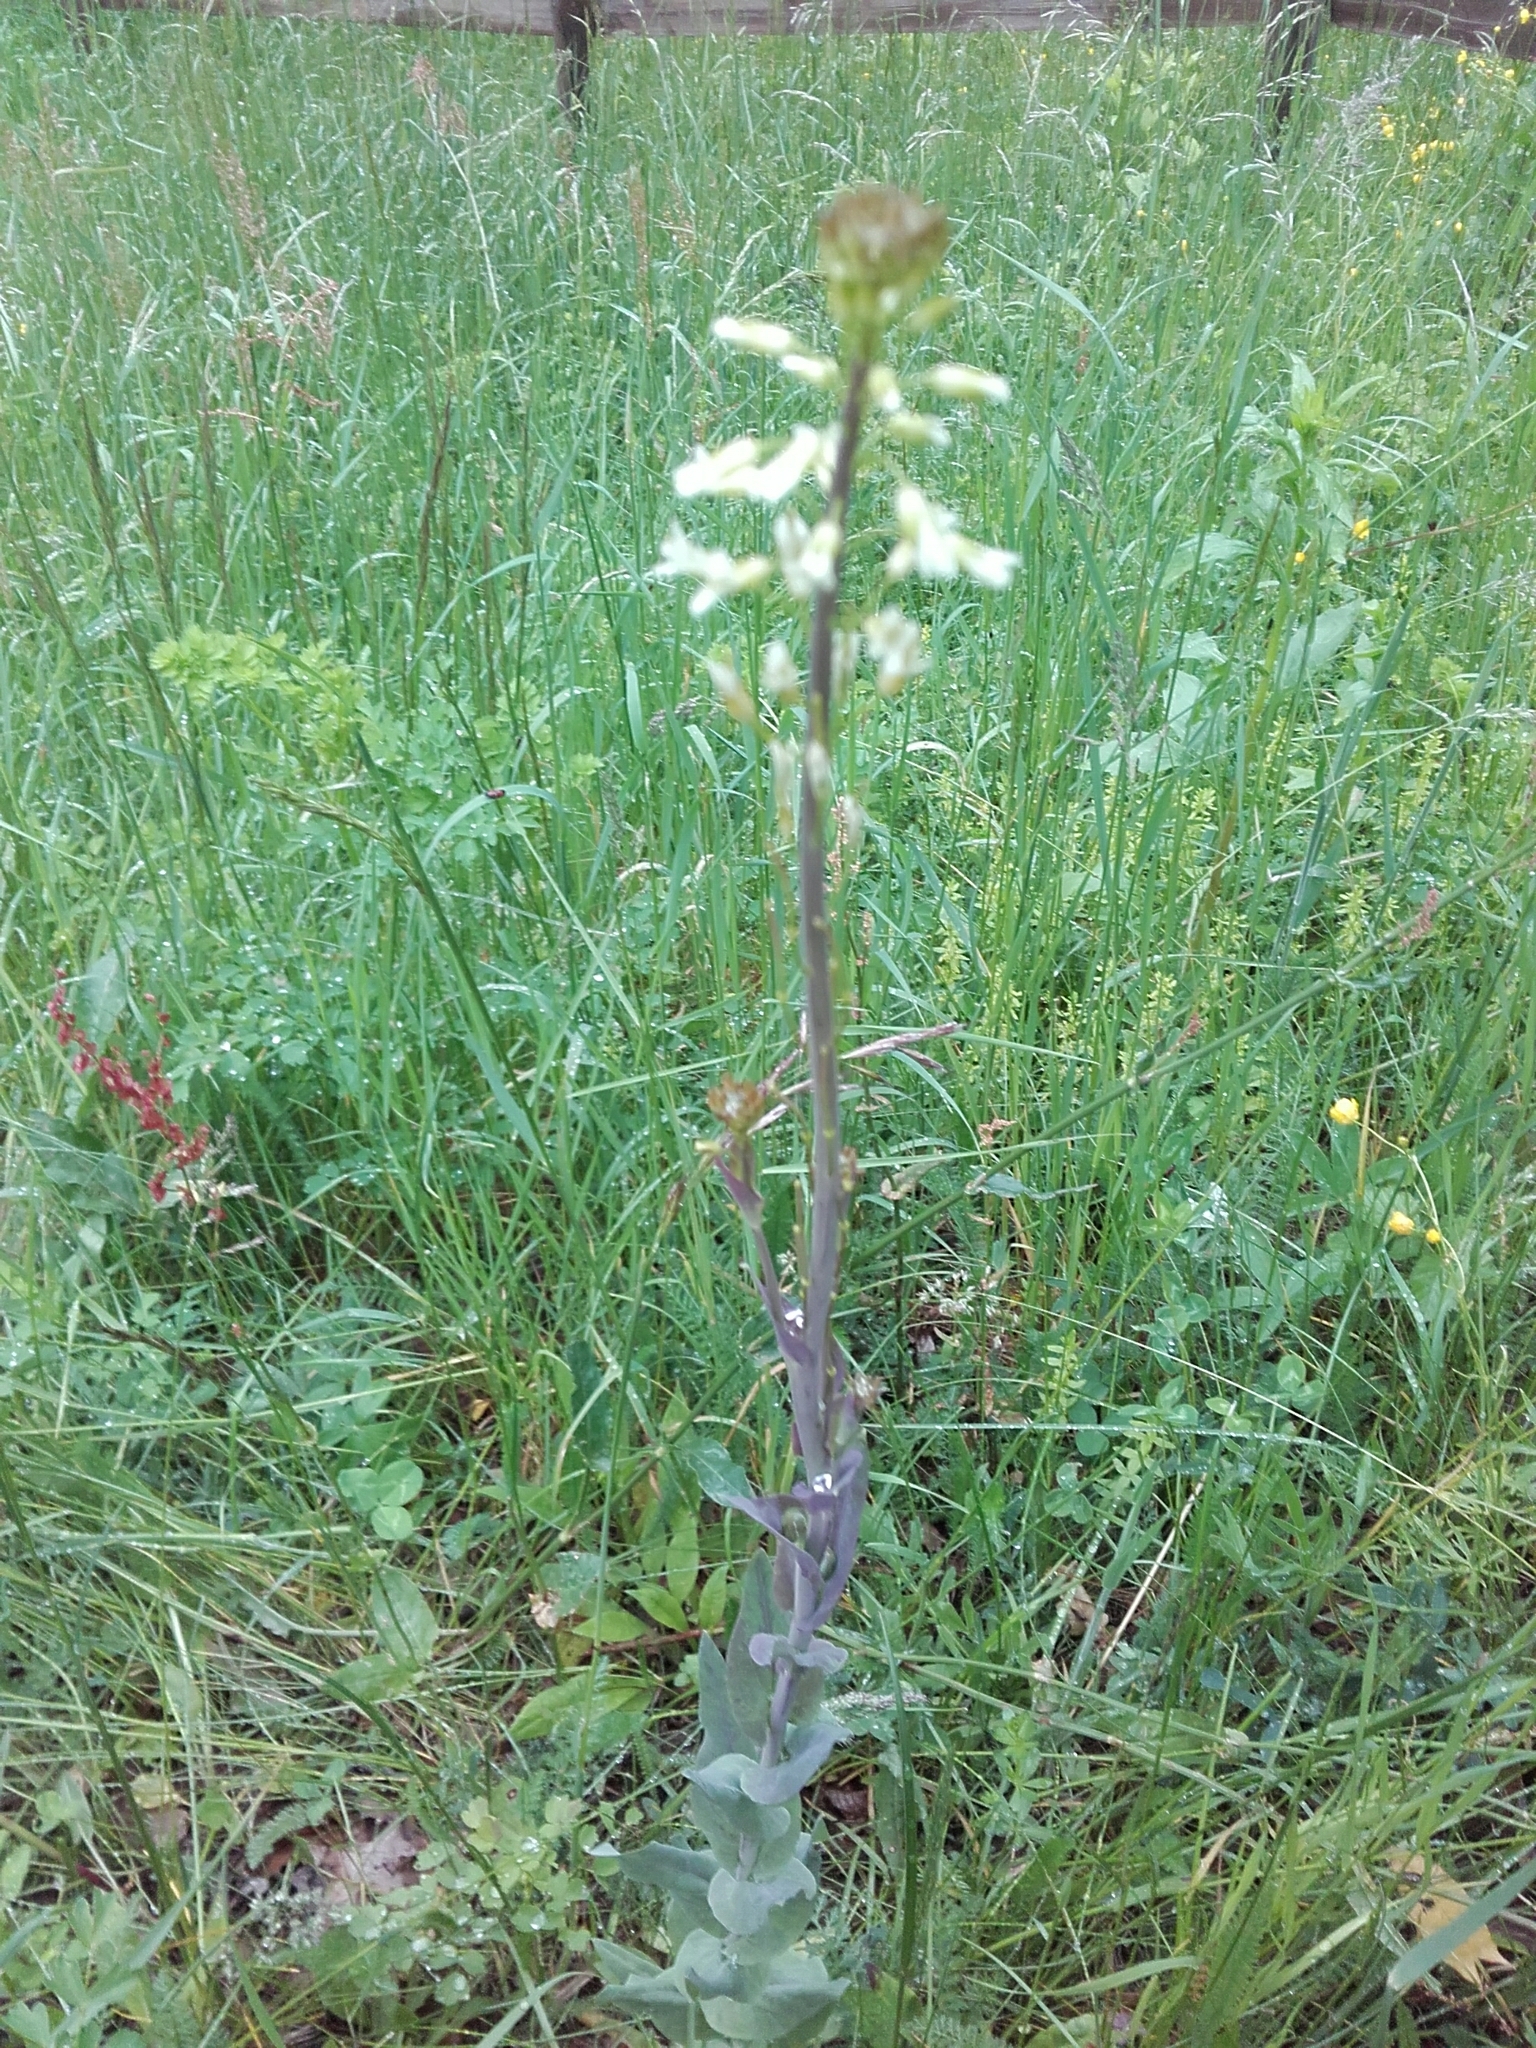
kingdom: Plantae
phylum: Tracheophyta
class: Magnoliopsida
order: Brassicales
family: Brassicaceae
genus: Turritis
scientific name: Turritis glabra
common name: Tower rockcress
